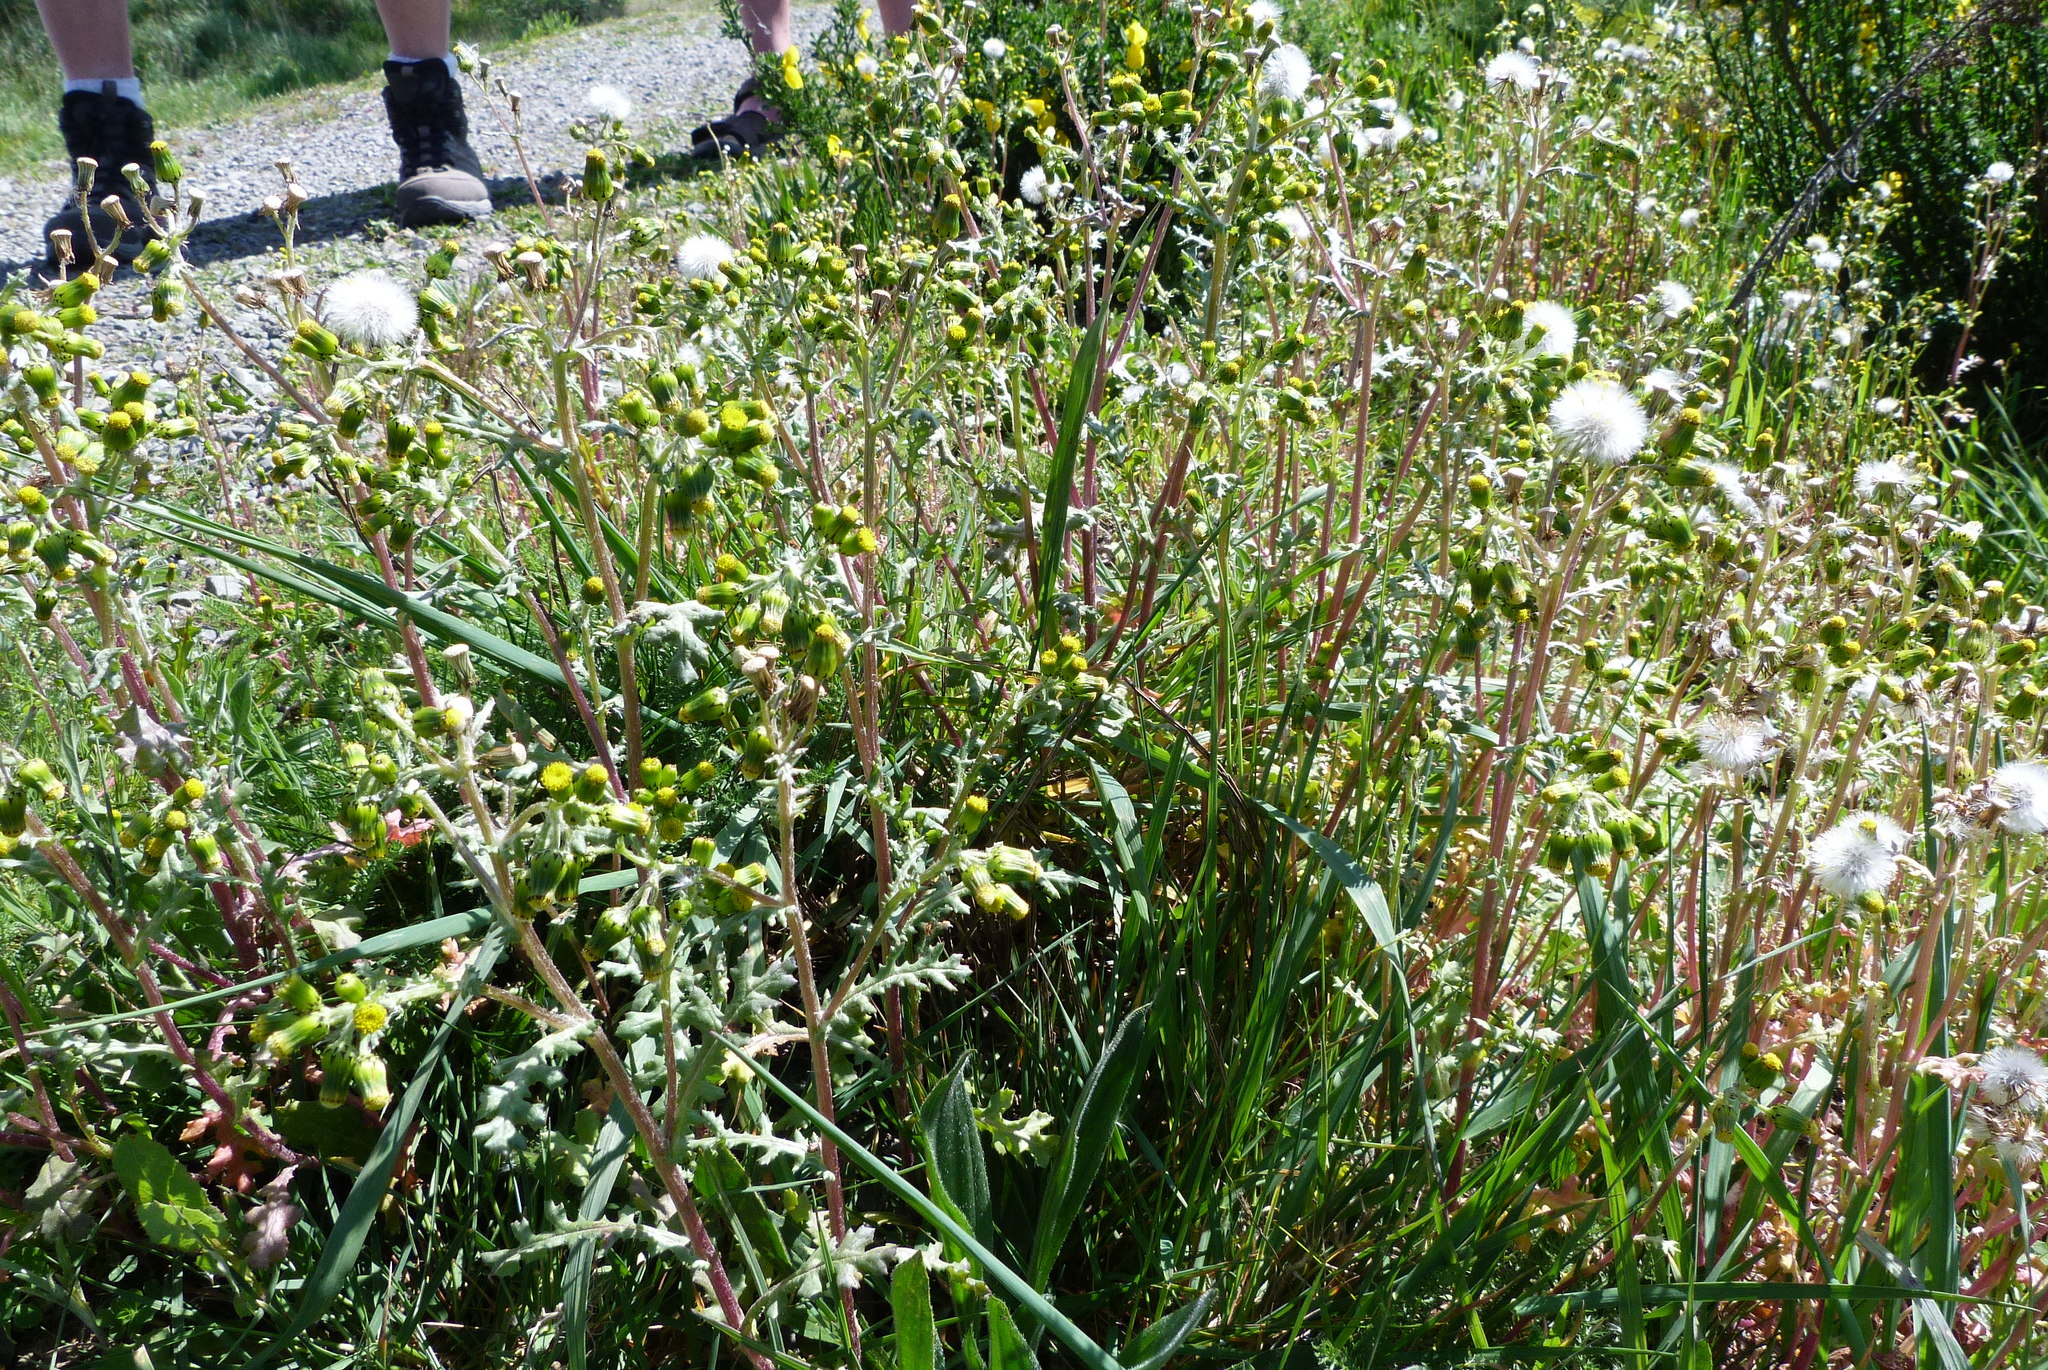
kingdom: Plantae
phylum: Tracheophyta
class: Magnoliopsida
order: Asterales
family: Asteraceae
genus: Senecio
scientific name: Senecio vulgaris
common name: Old-man-in-the-spring
